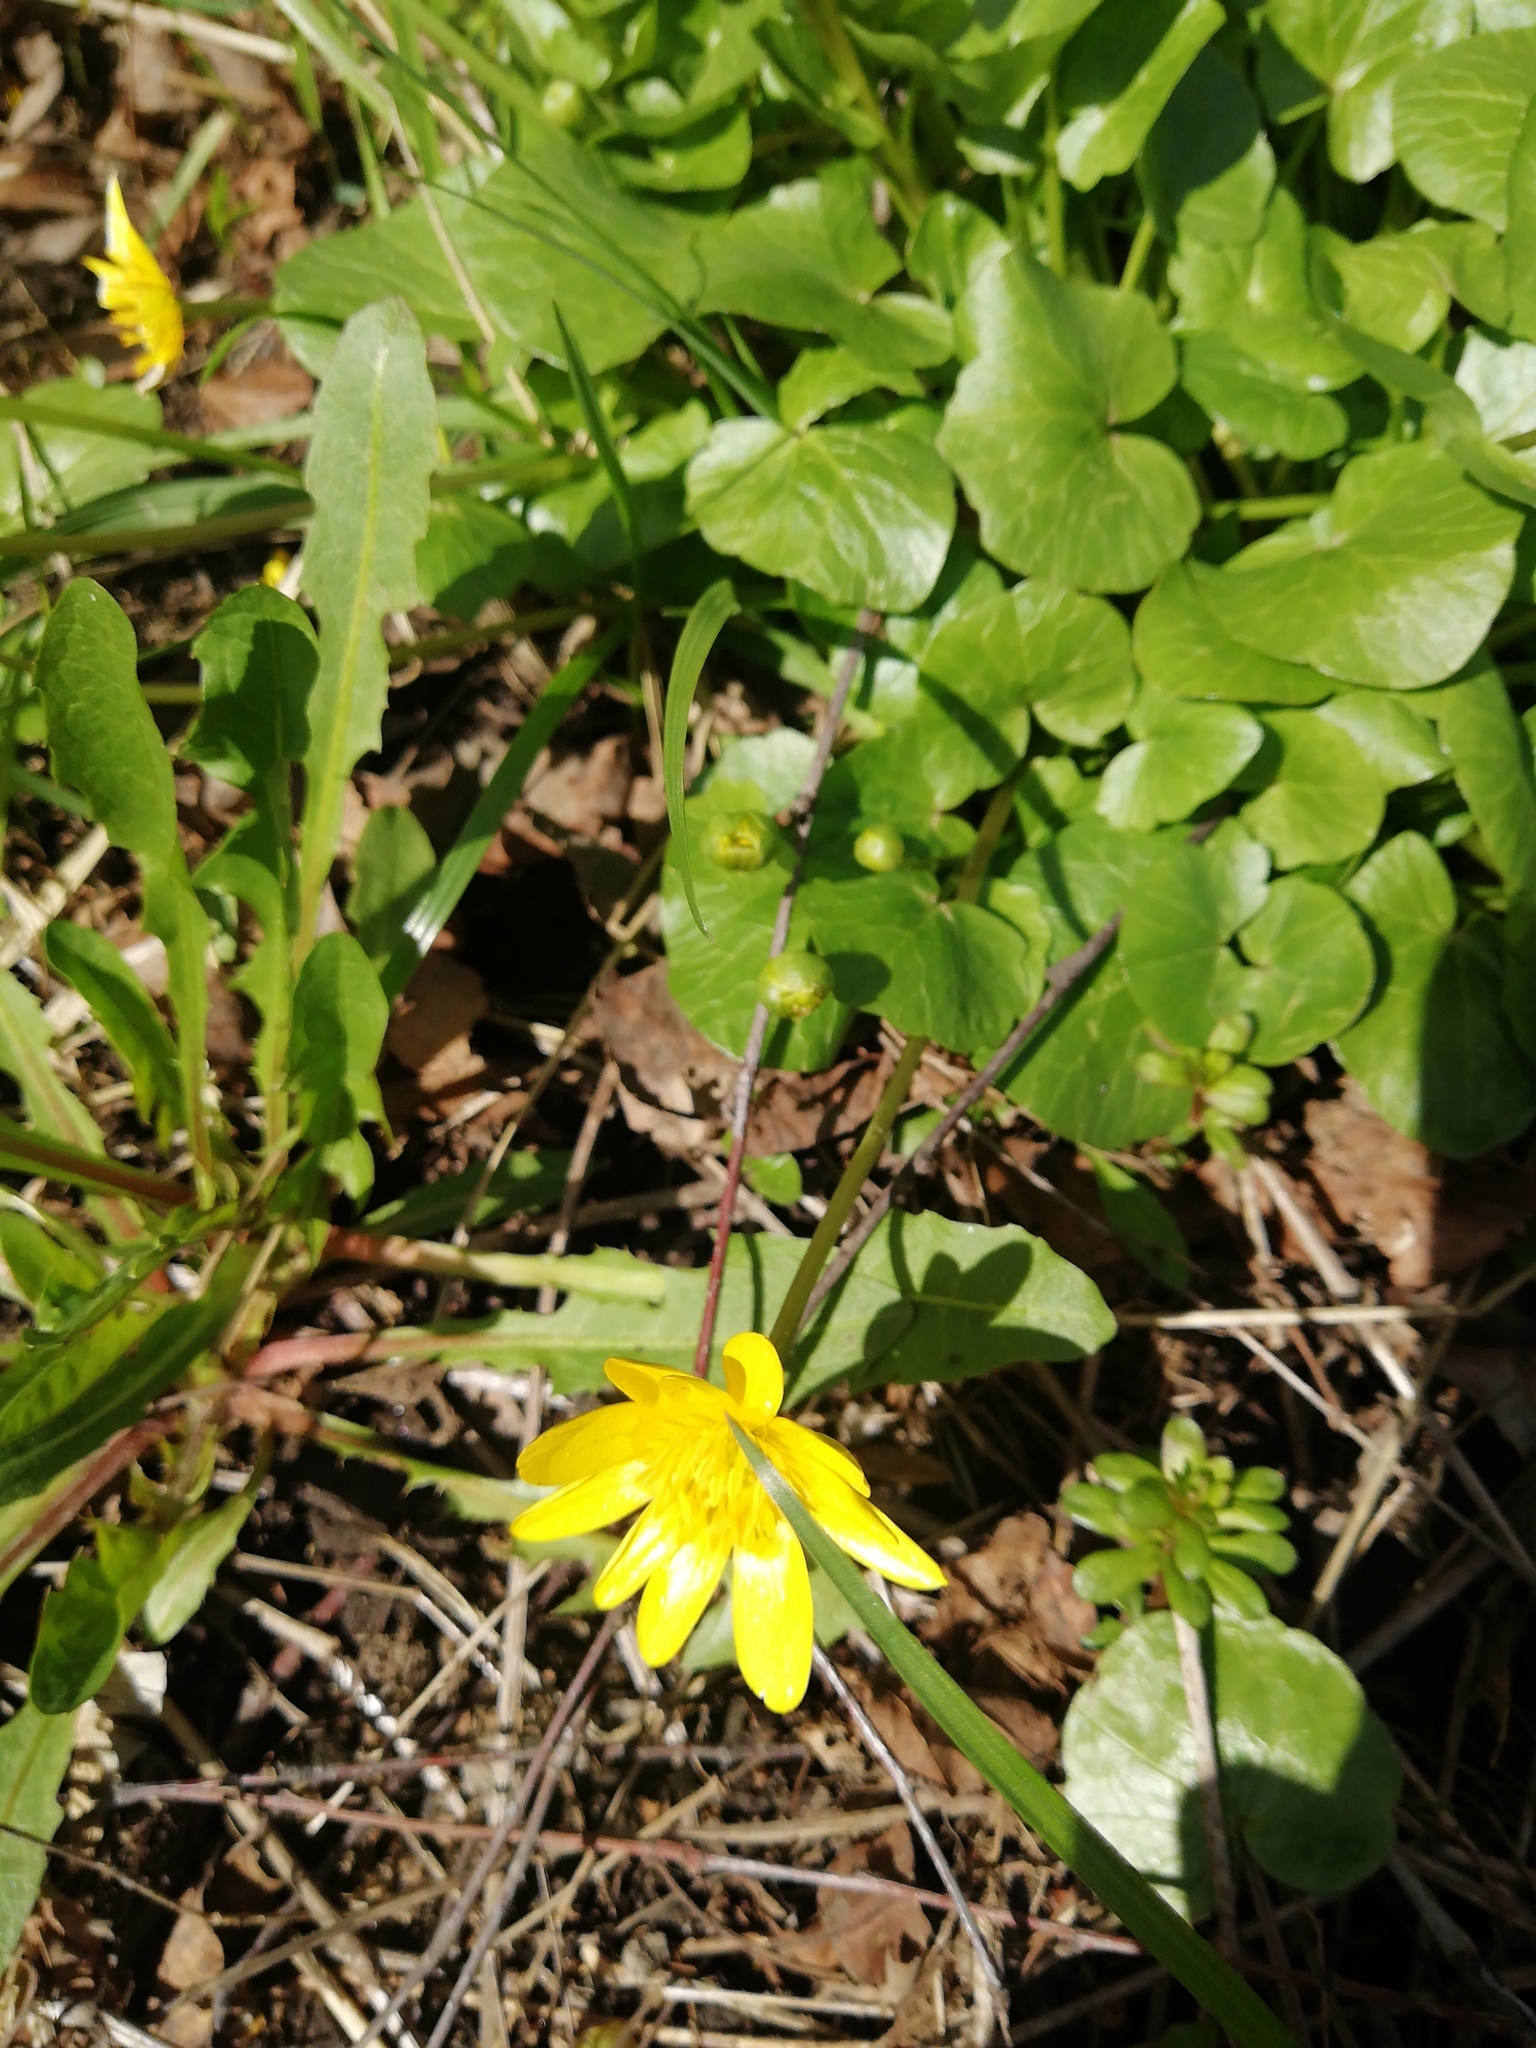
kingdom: Plantae
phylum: Tracheophyta
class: Magnoliopsida
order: Ranunculales
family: Ranunculaceae
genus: Ficaria
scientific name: Ficaria verna
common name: Lesser celandine
